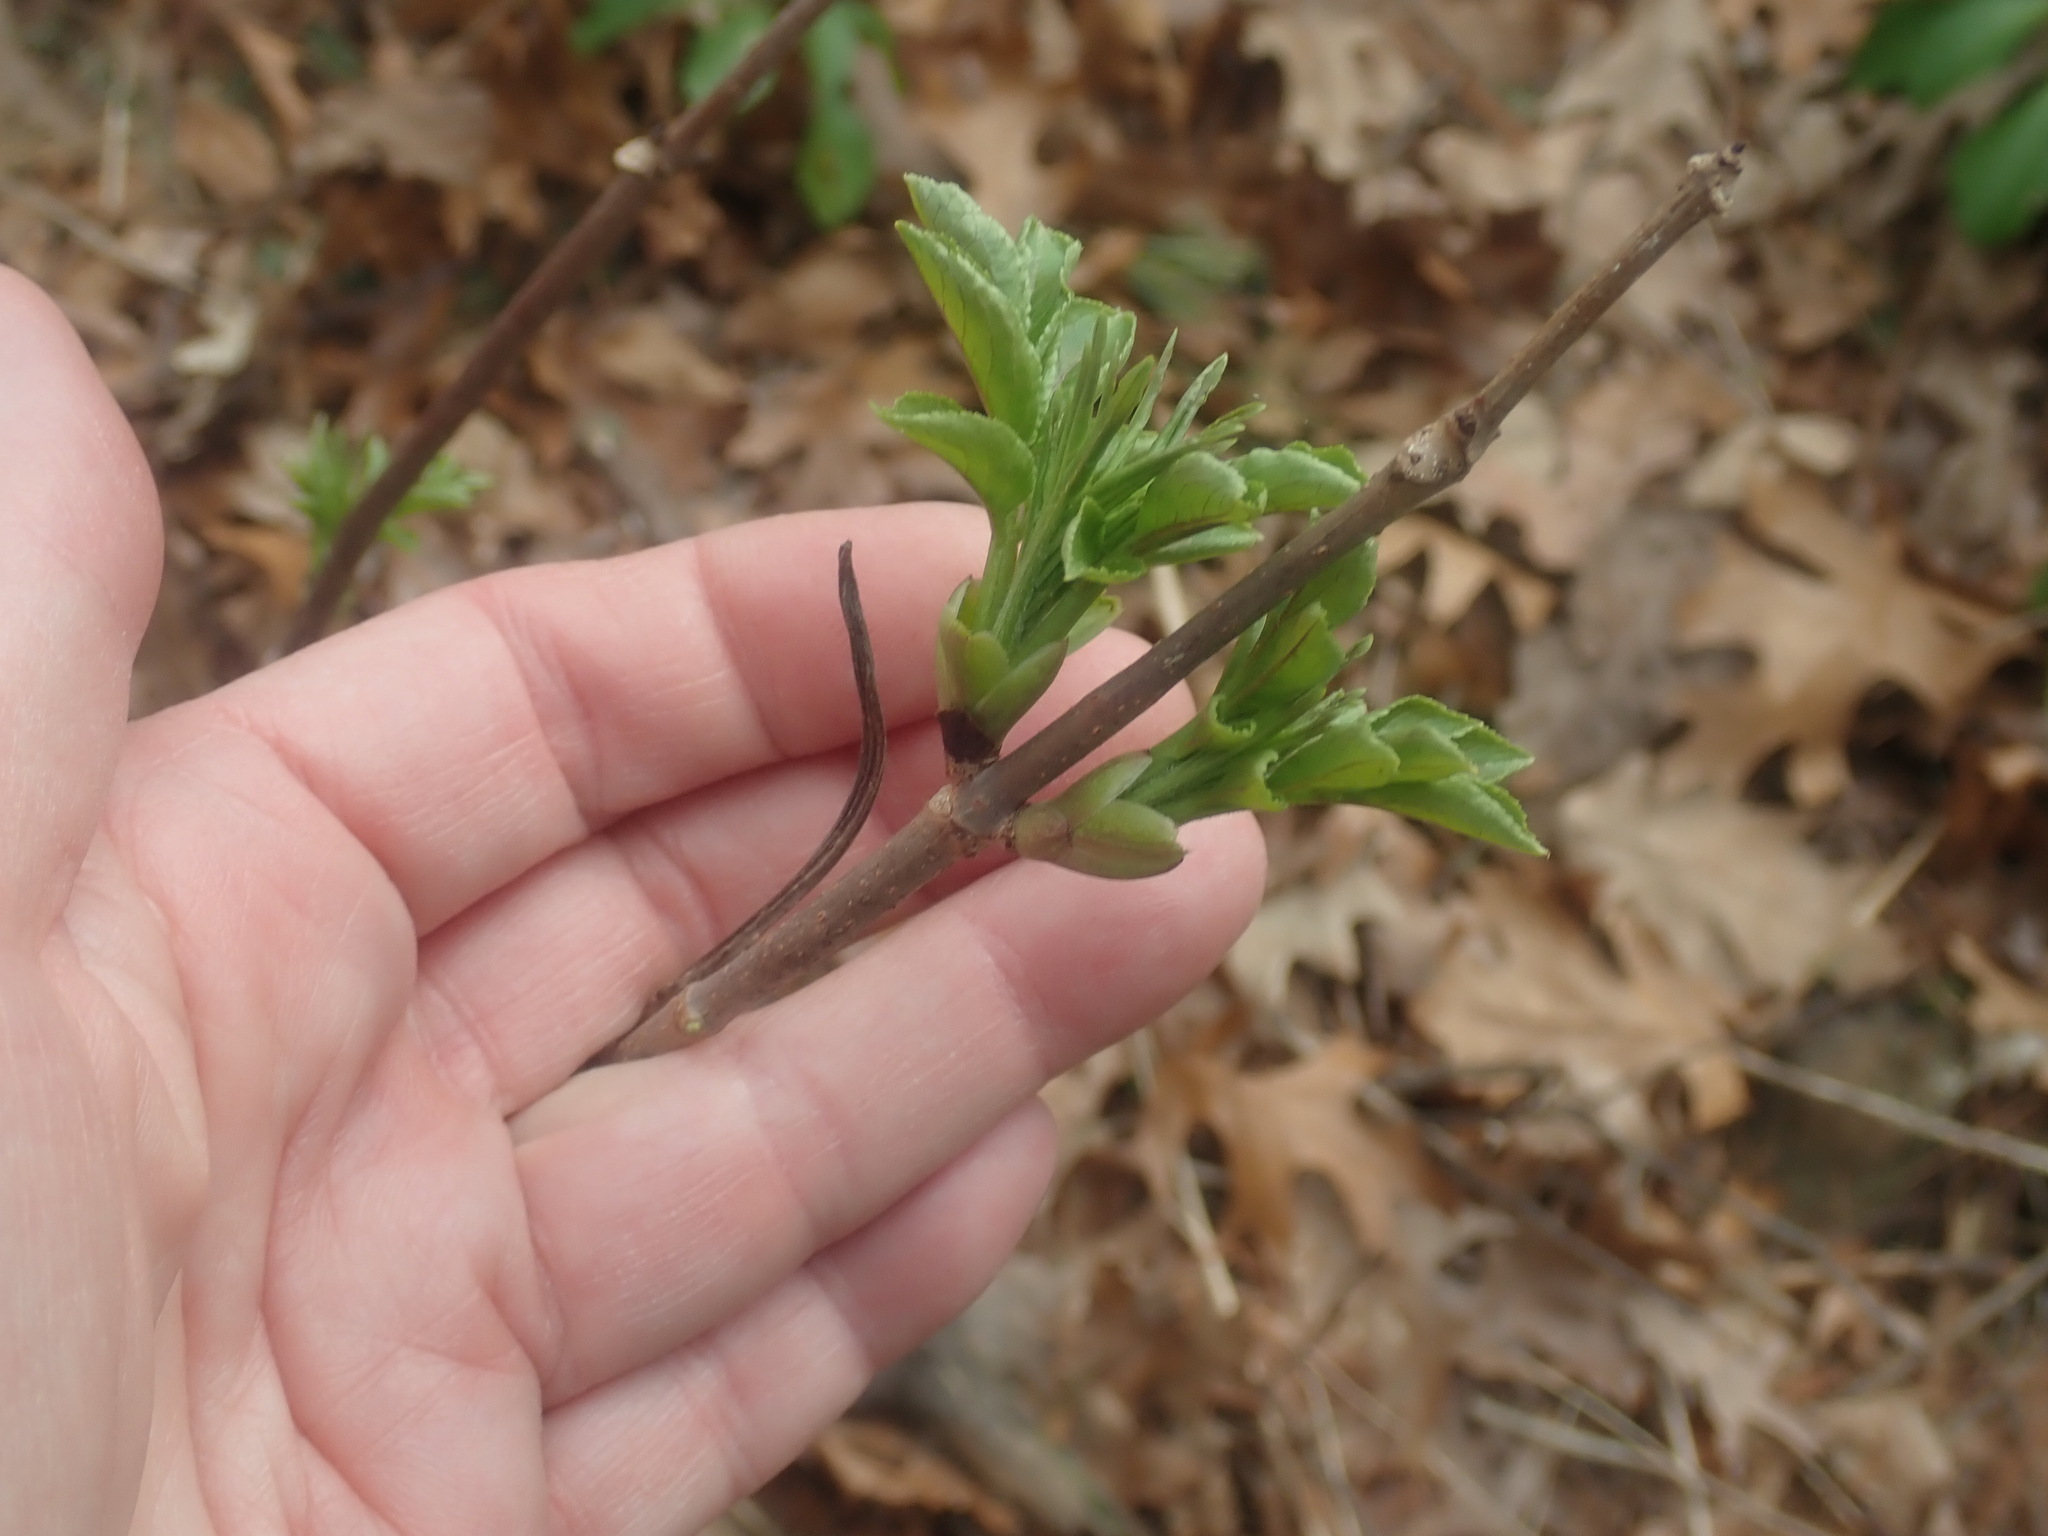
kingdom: Plantae
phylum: Tracheophyta
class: Magnoliopsida
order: Dipsacales
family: Viburnaceae
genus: Sambucus
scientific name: Sambucus
